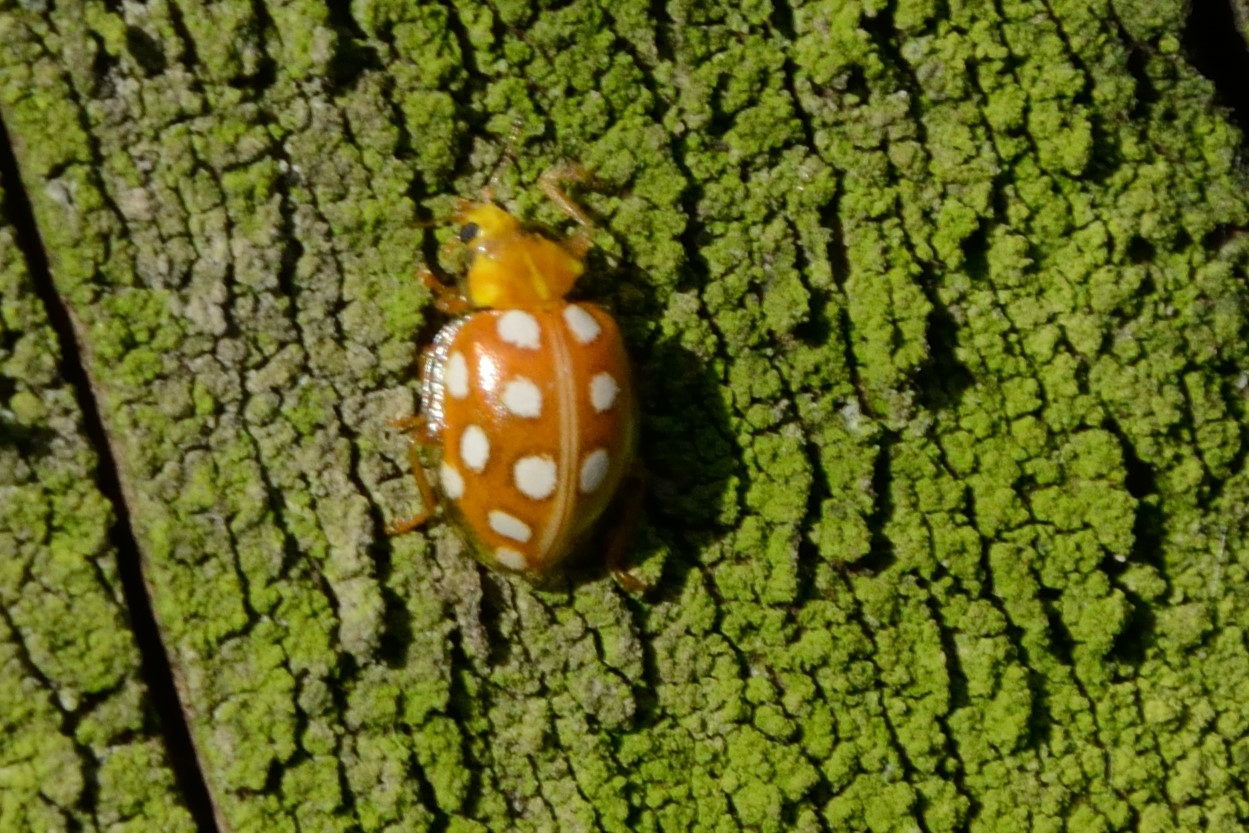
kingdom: Animalia
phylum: Arthropoda
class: Insecta
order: Coleoptera
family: Coccinellidae
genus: Halyzia
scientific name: Halyzia sedecimguttata
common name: Orange ladybird
